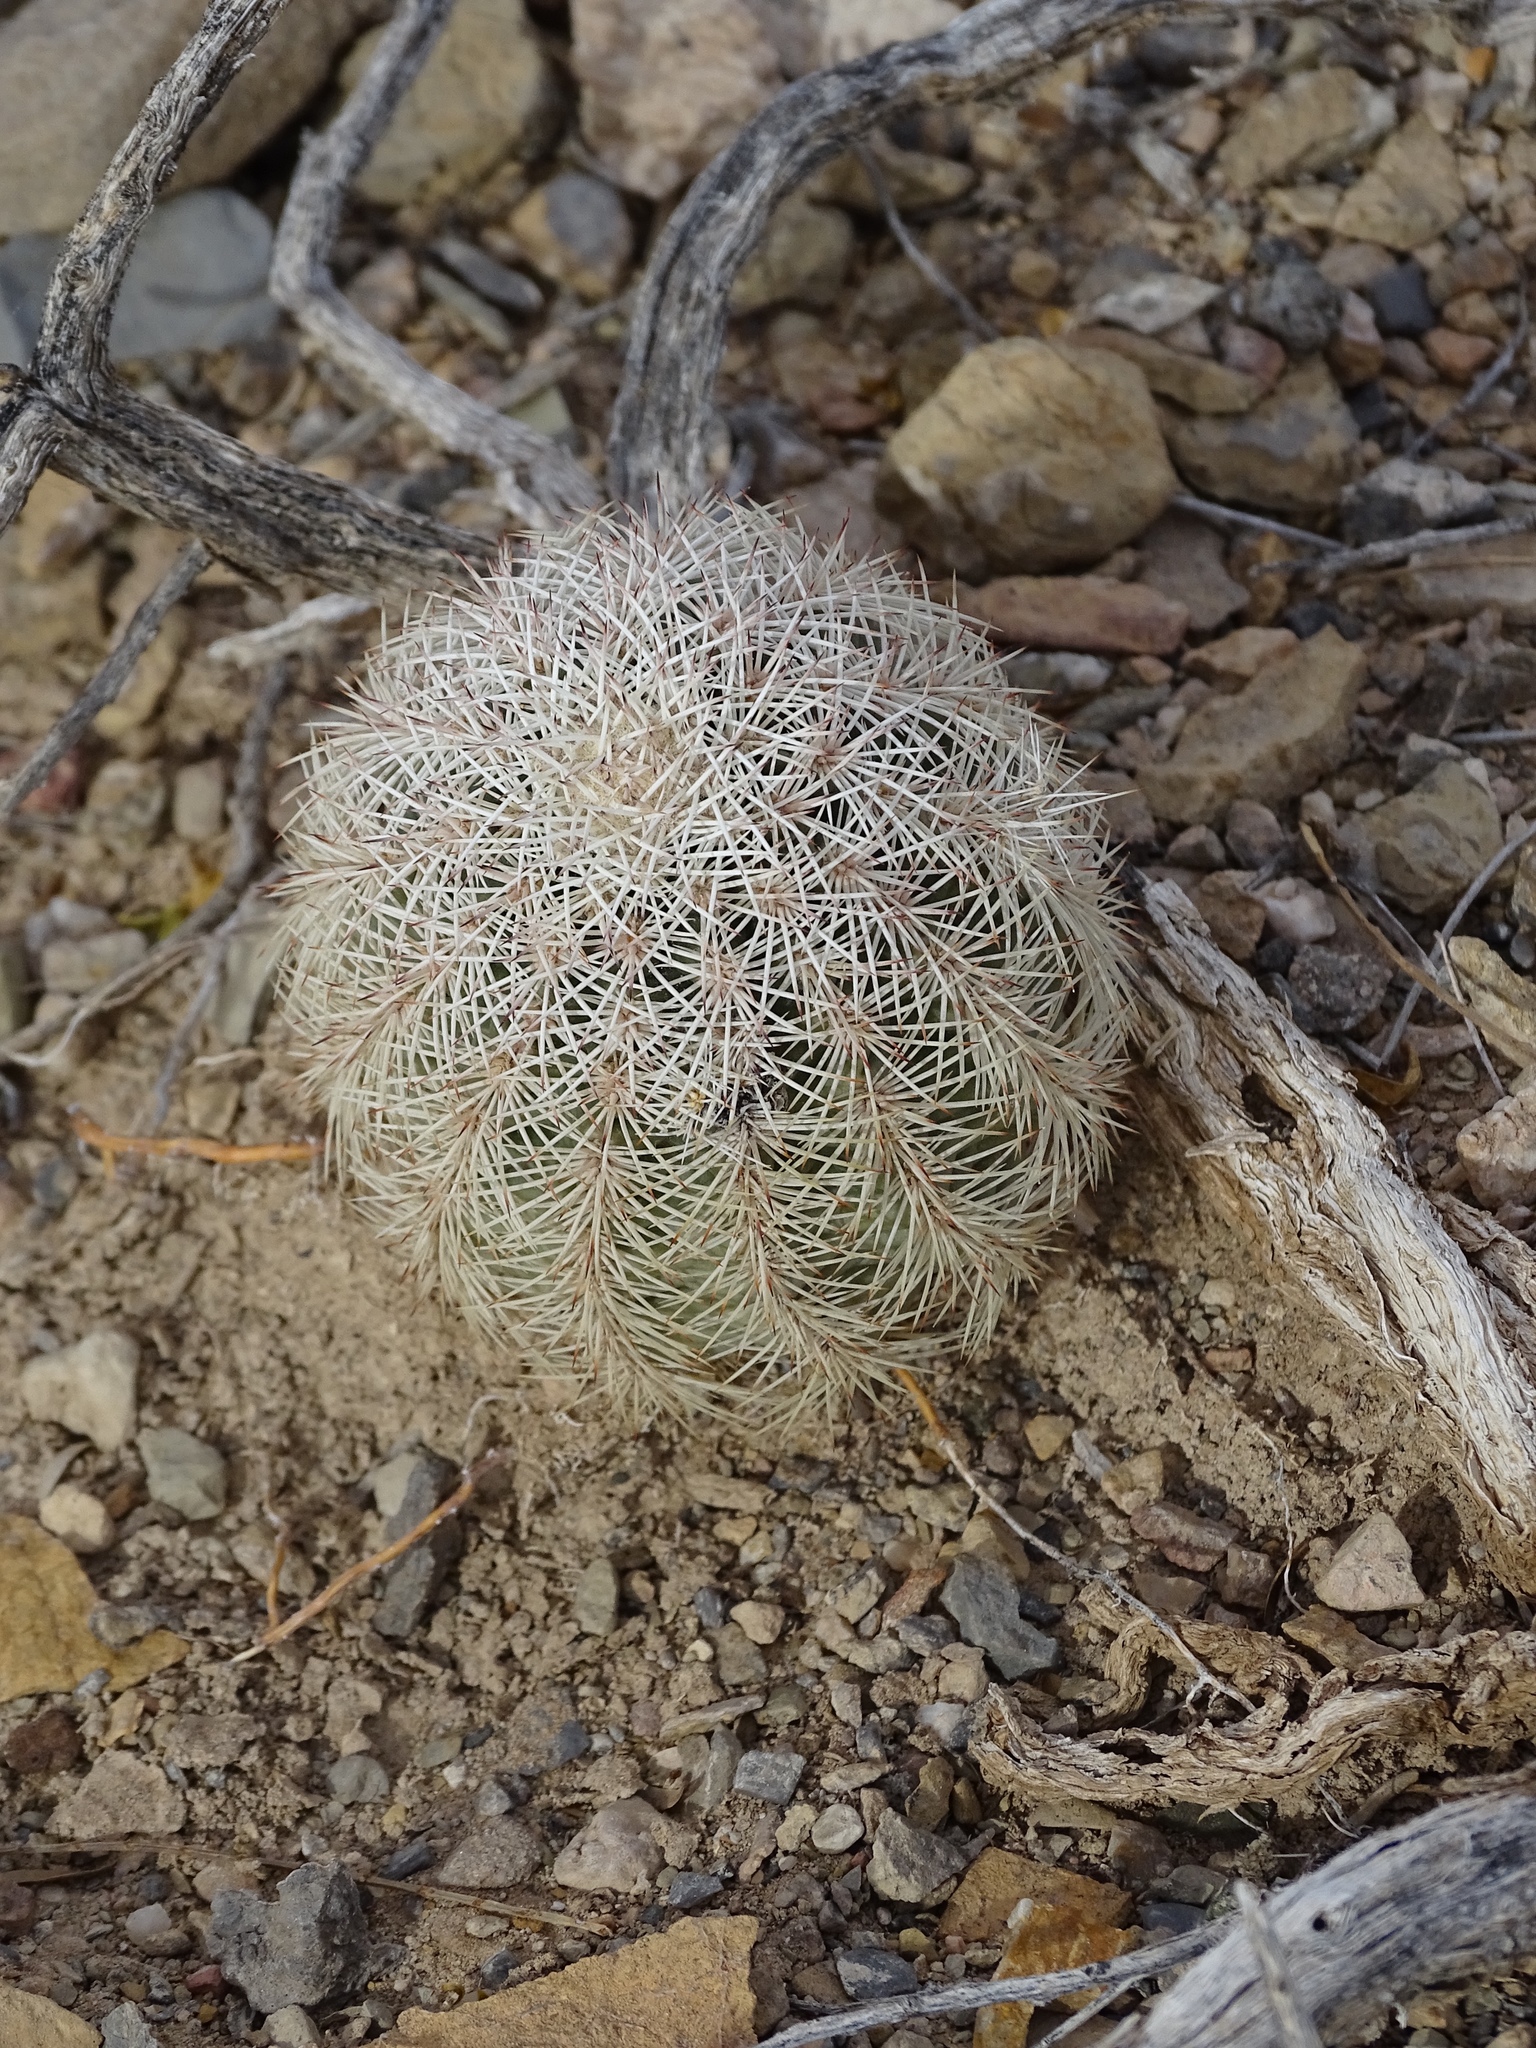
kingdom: Plantae
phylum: Tracheophyta
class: Magnoliopsida
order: Caryophyllales
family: Cactaceae
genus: Echinocereus
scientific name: Echinocereus dasyacanthus
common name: Spiny hedgehog cactus
